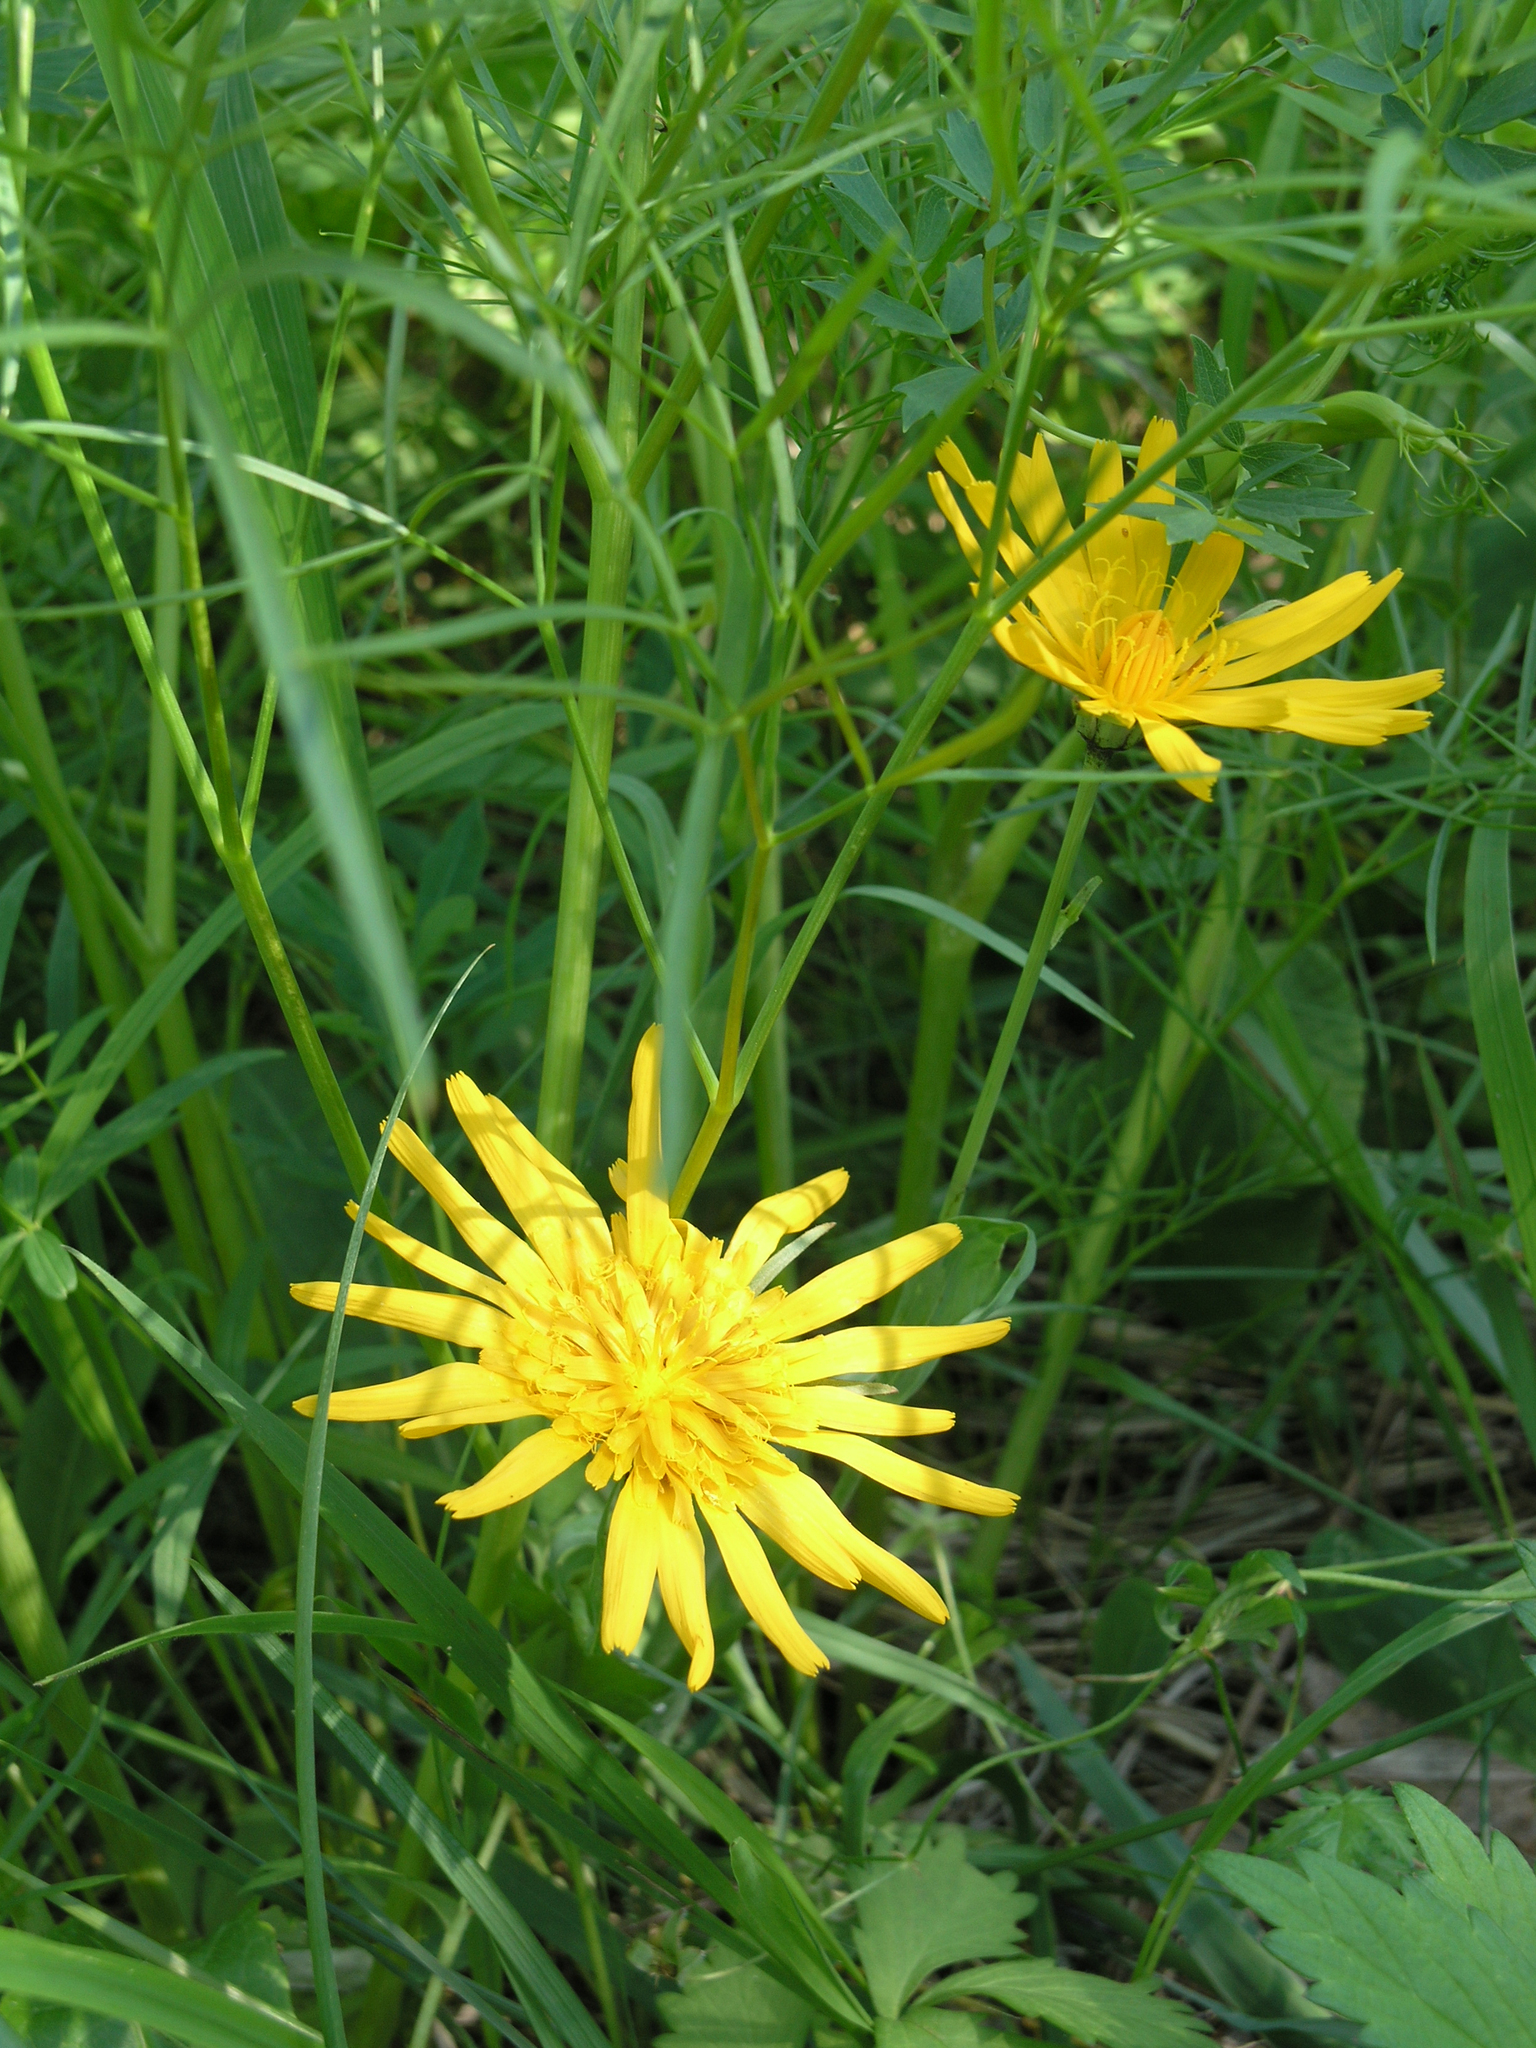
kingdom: Plantae
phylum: Tracheophyta
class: Magnoliopsida
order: Asterales
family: Asteraceae
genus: Scorzonera
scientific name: Scorzonera radiata
